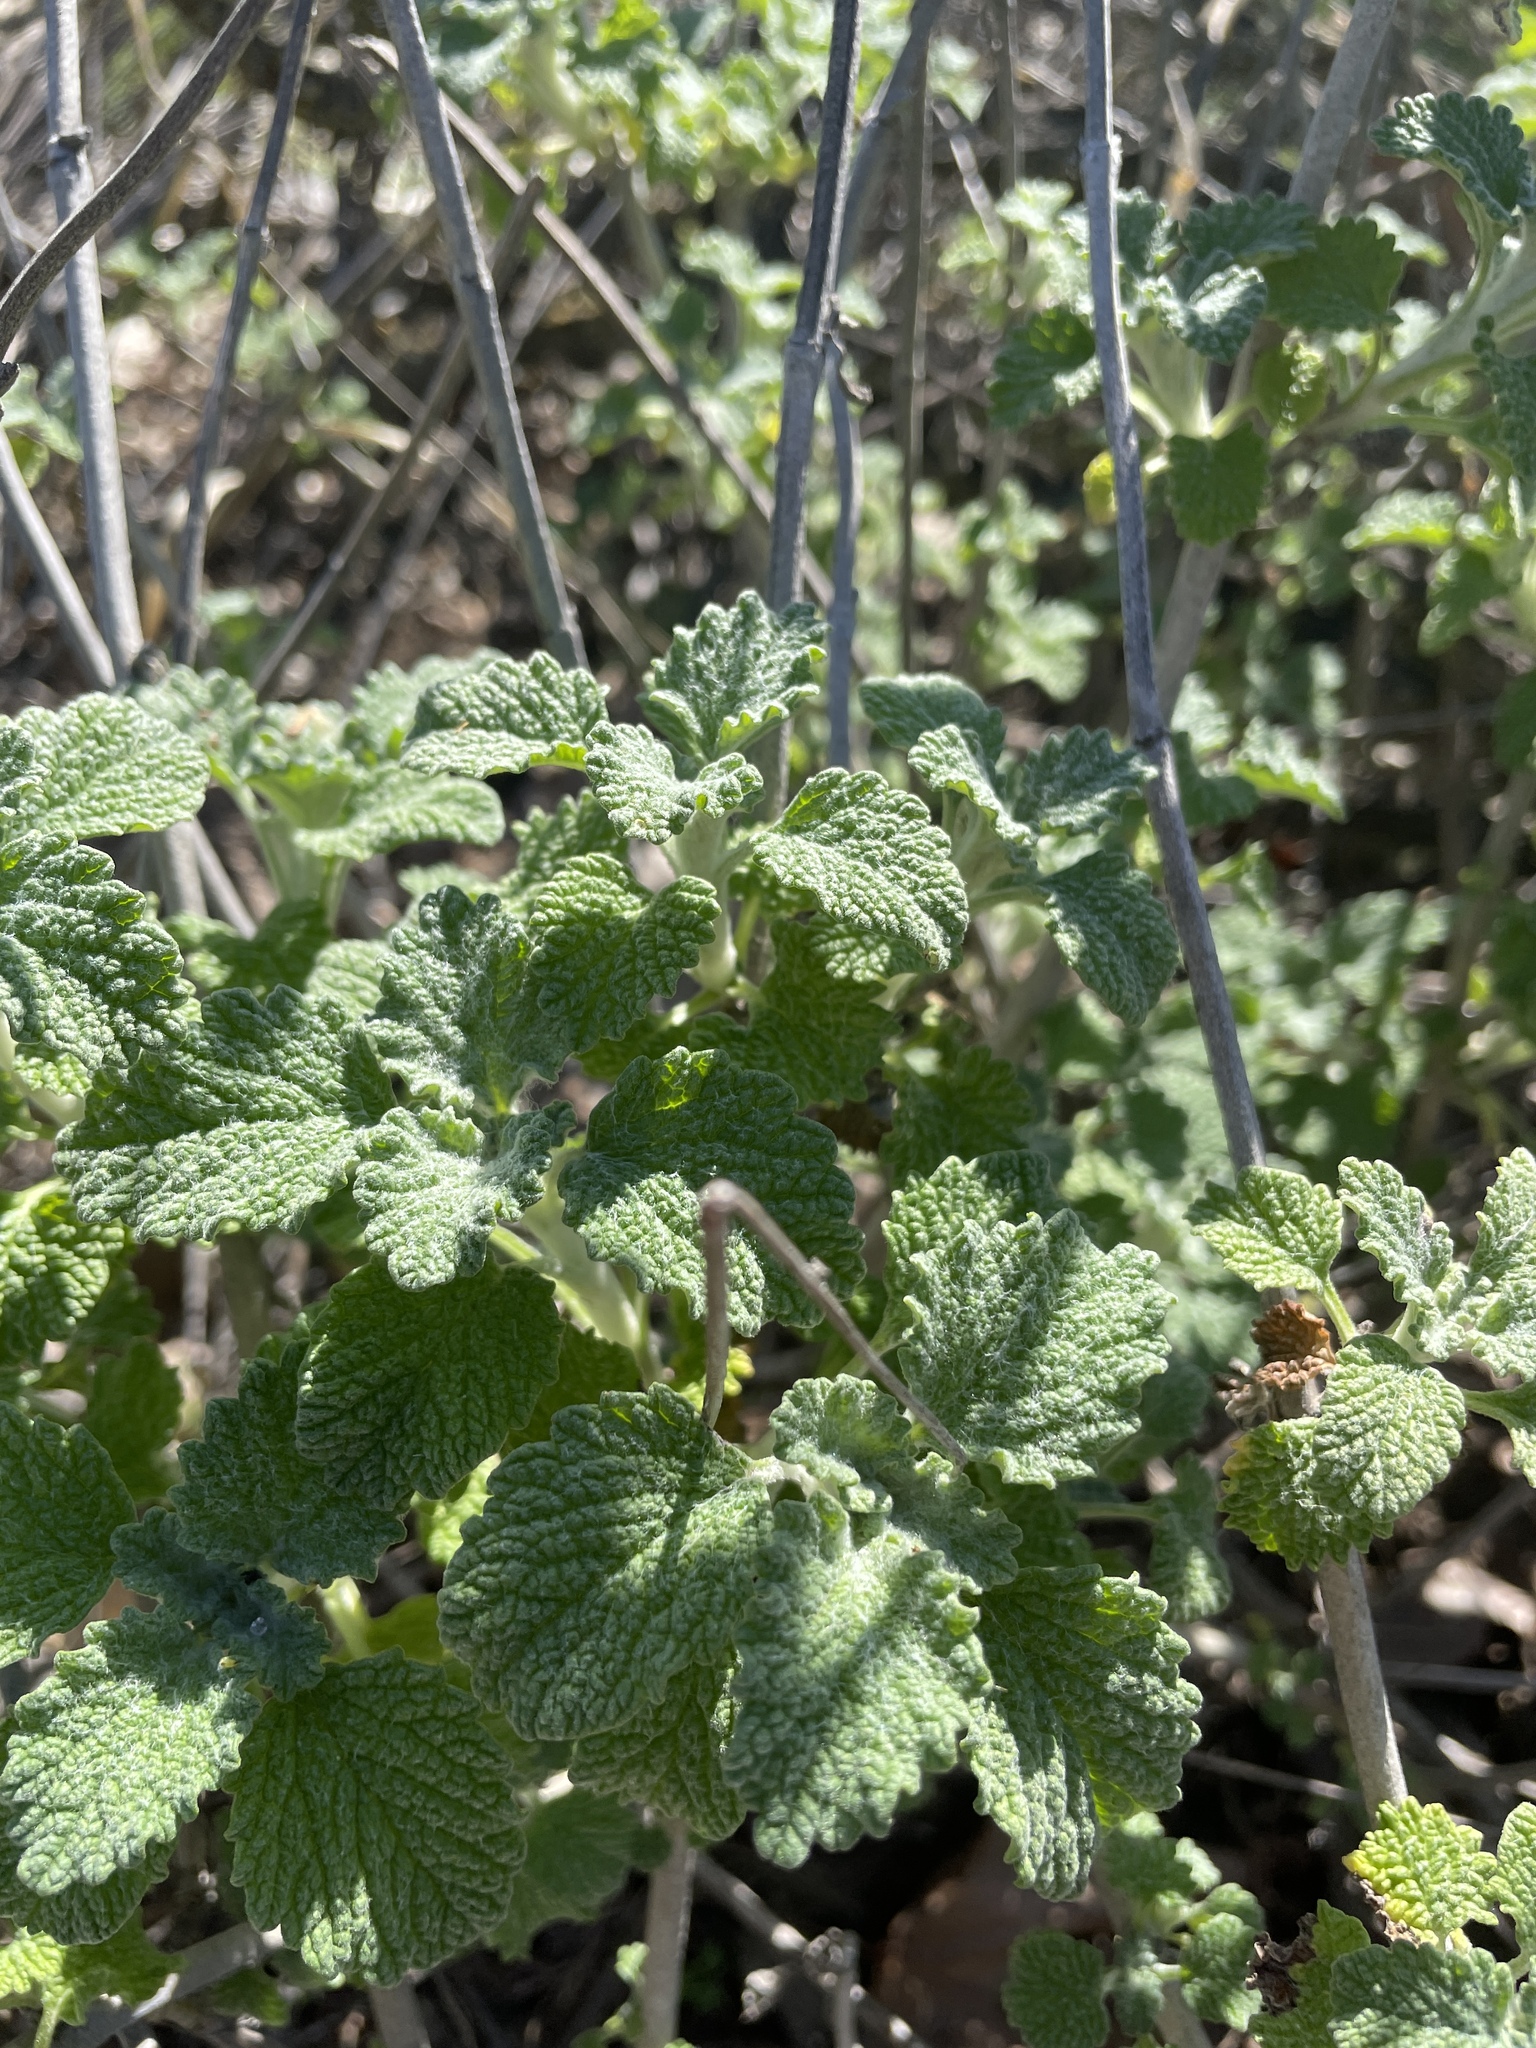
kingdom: Plantae
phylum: Tracheophyta
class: Magnoliopsida
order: Lamiales
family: Lamiaceae
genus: Marrubium
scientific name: Marrubium vulgare
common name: Horehound
